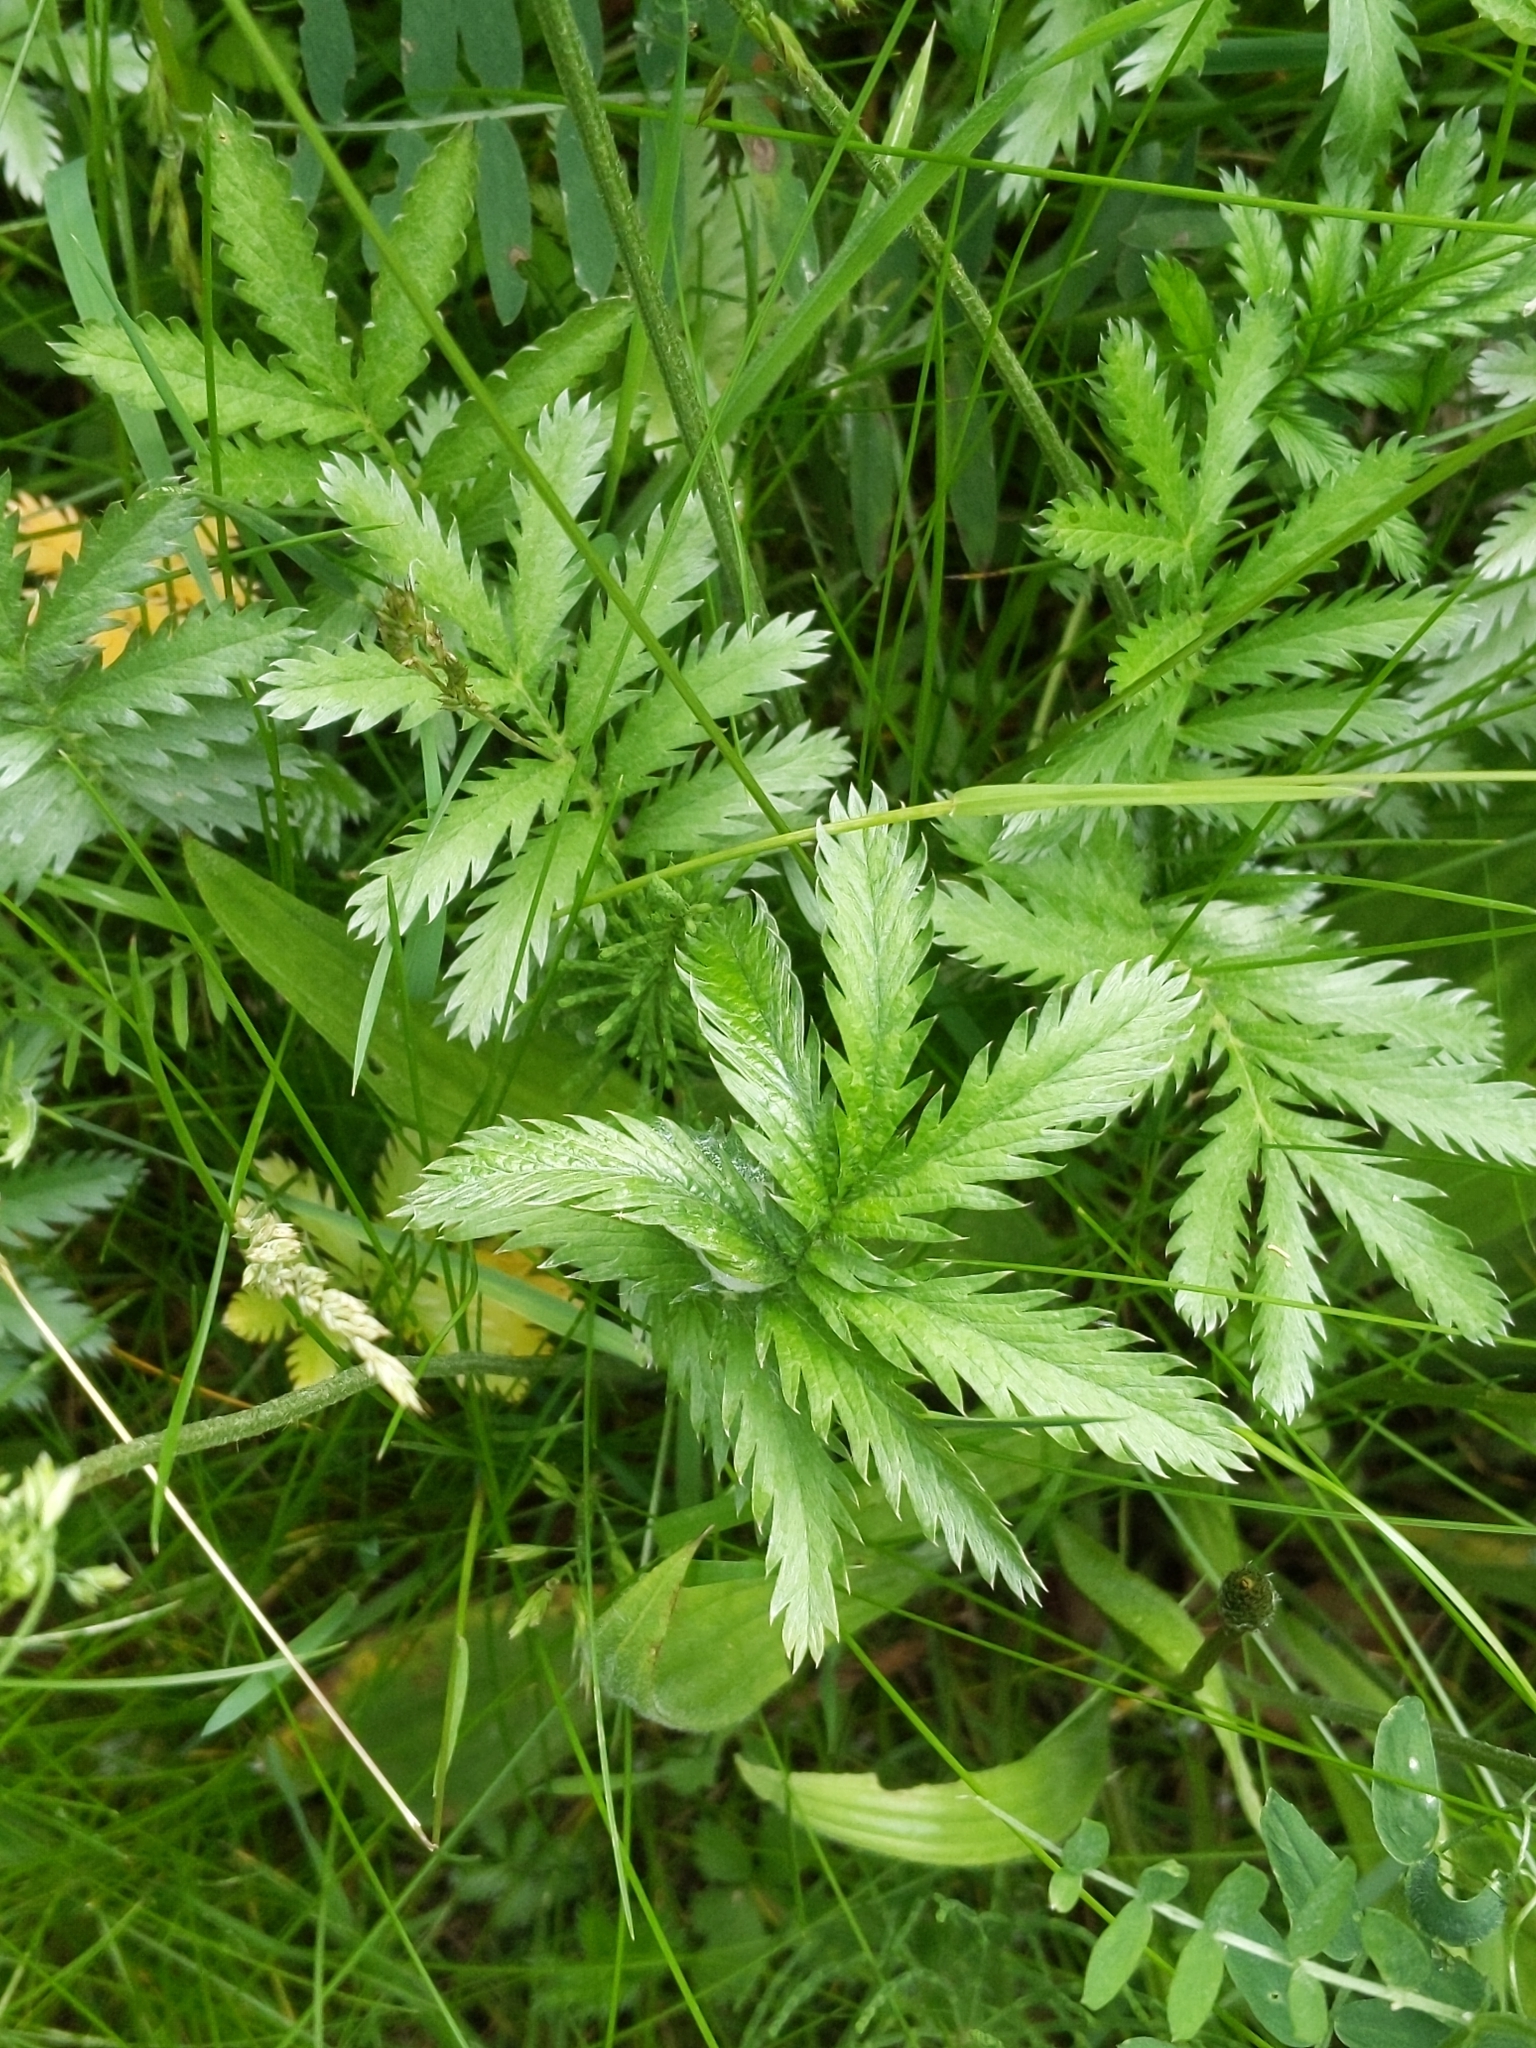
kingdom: Plantae
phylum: Tracheophyta
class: Magnoliopsida
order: Rosales
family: Rosaceae
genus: Argentina
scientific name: Argentina anserina
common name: Common silverweed
